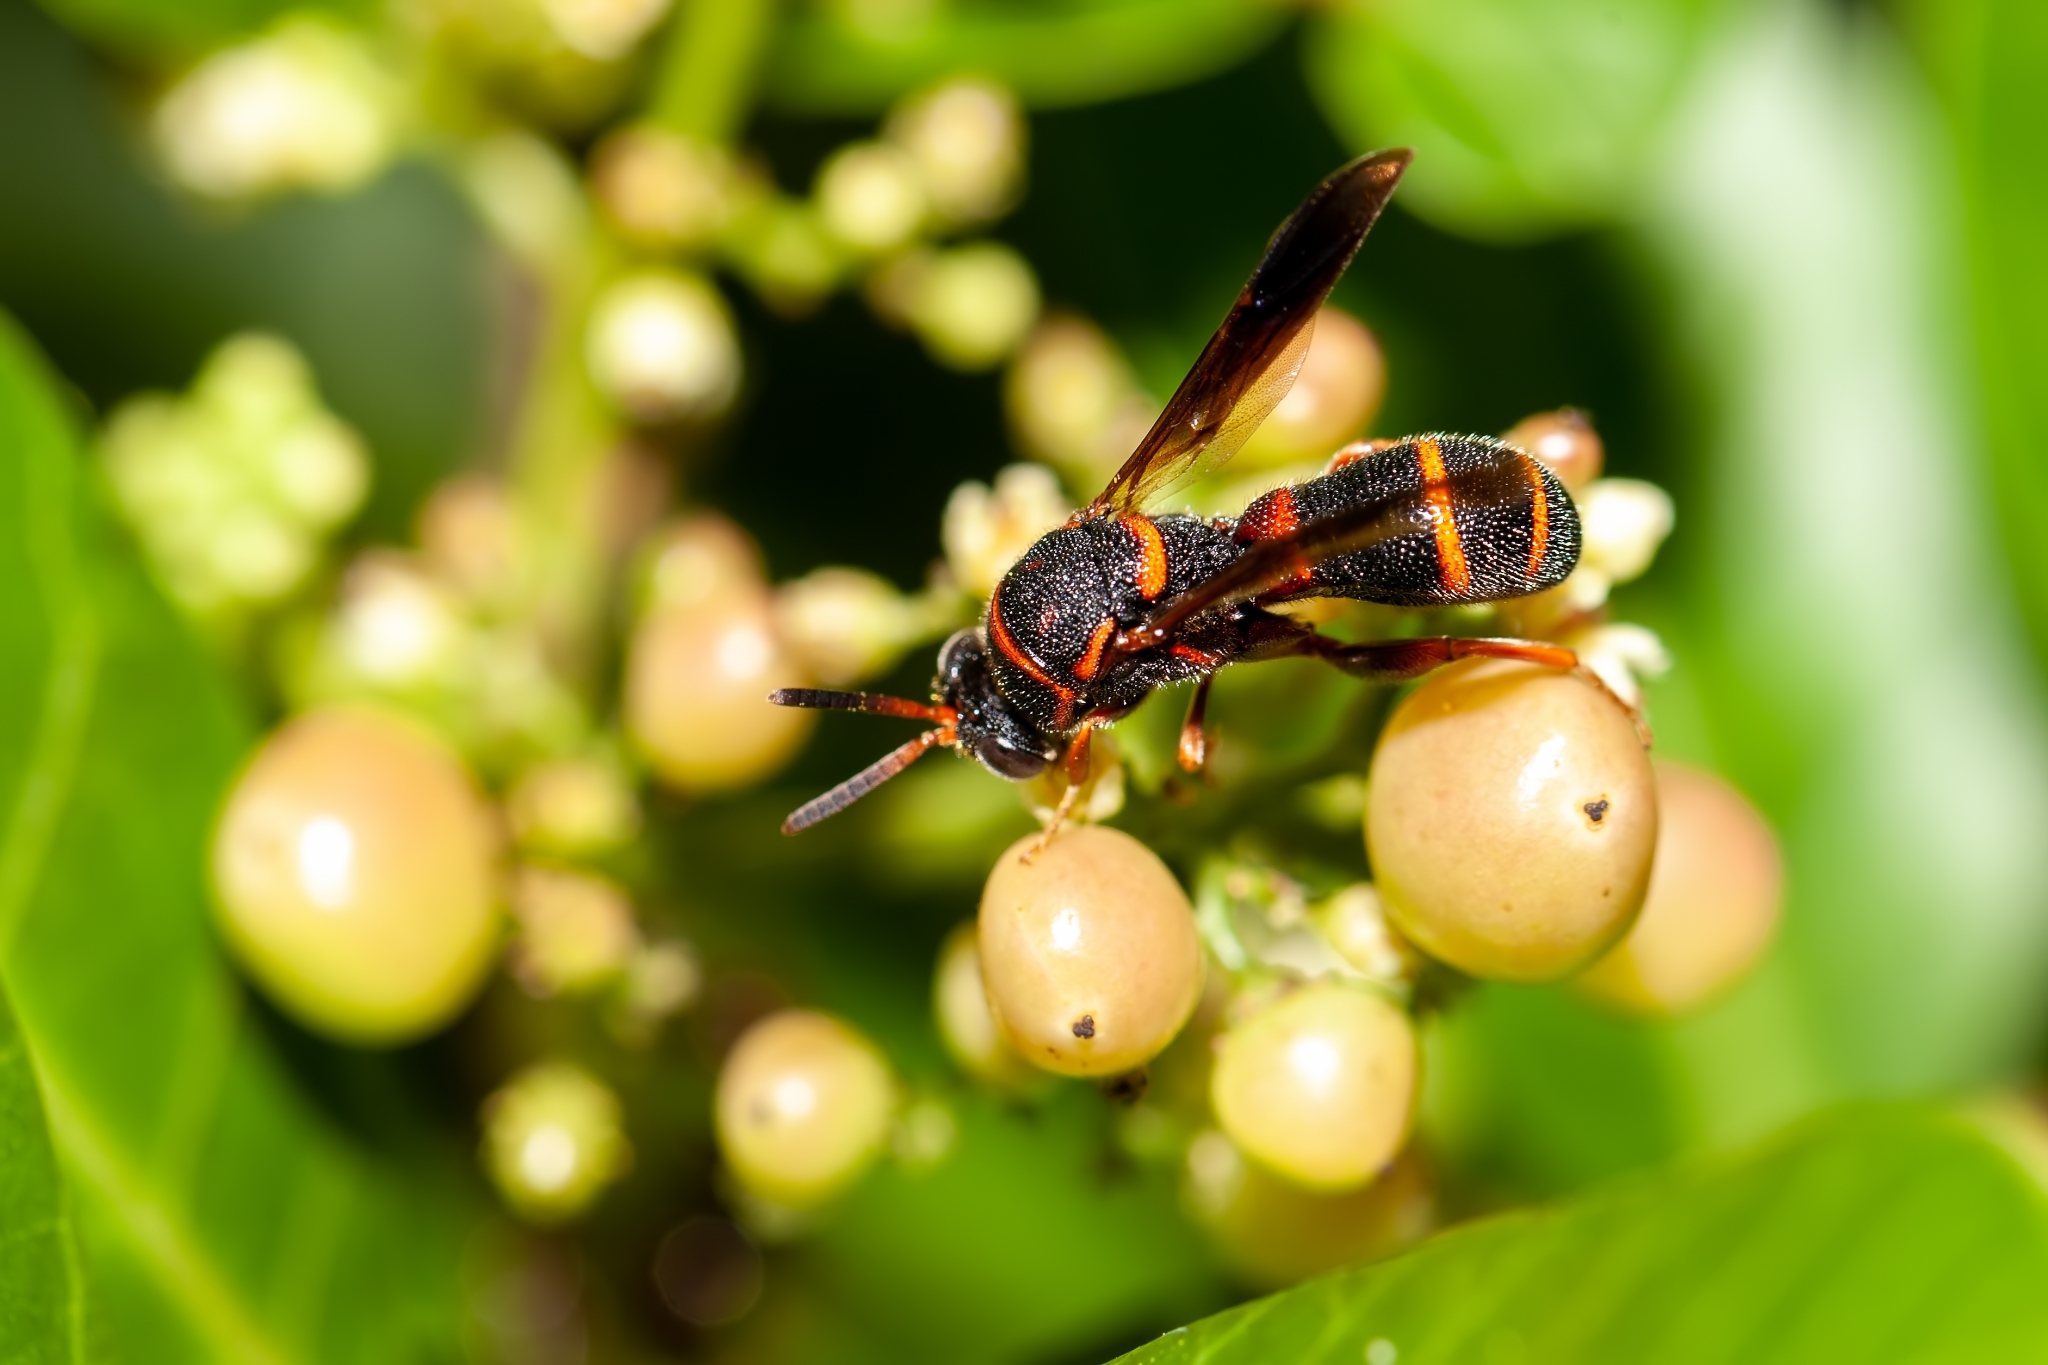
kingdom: Animalia
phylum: Arthropoda
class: Insecta
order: Hymenoptera
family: Leucospidae
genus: Leucospis
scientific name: Leucospis affinis
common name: Wasp
